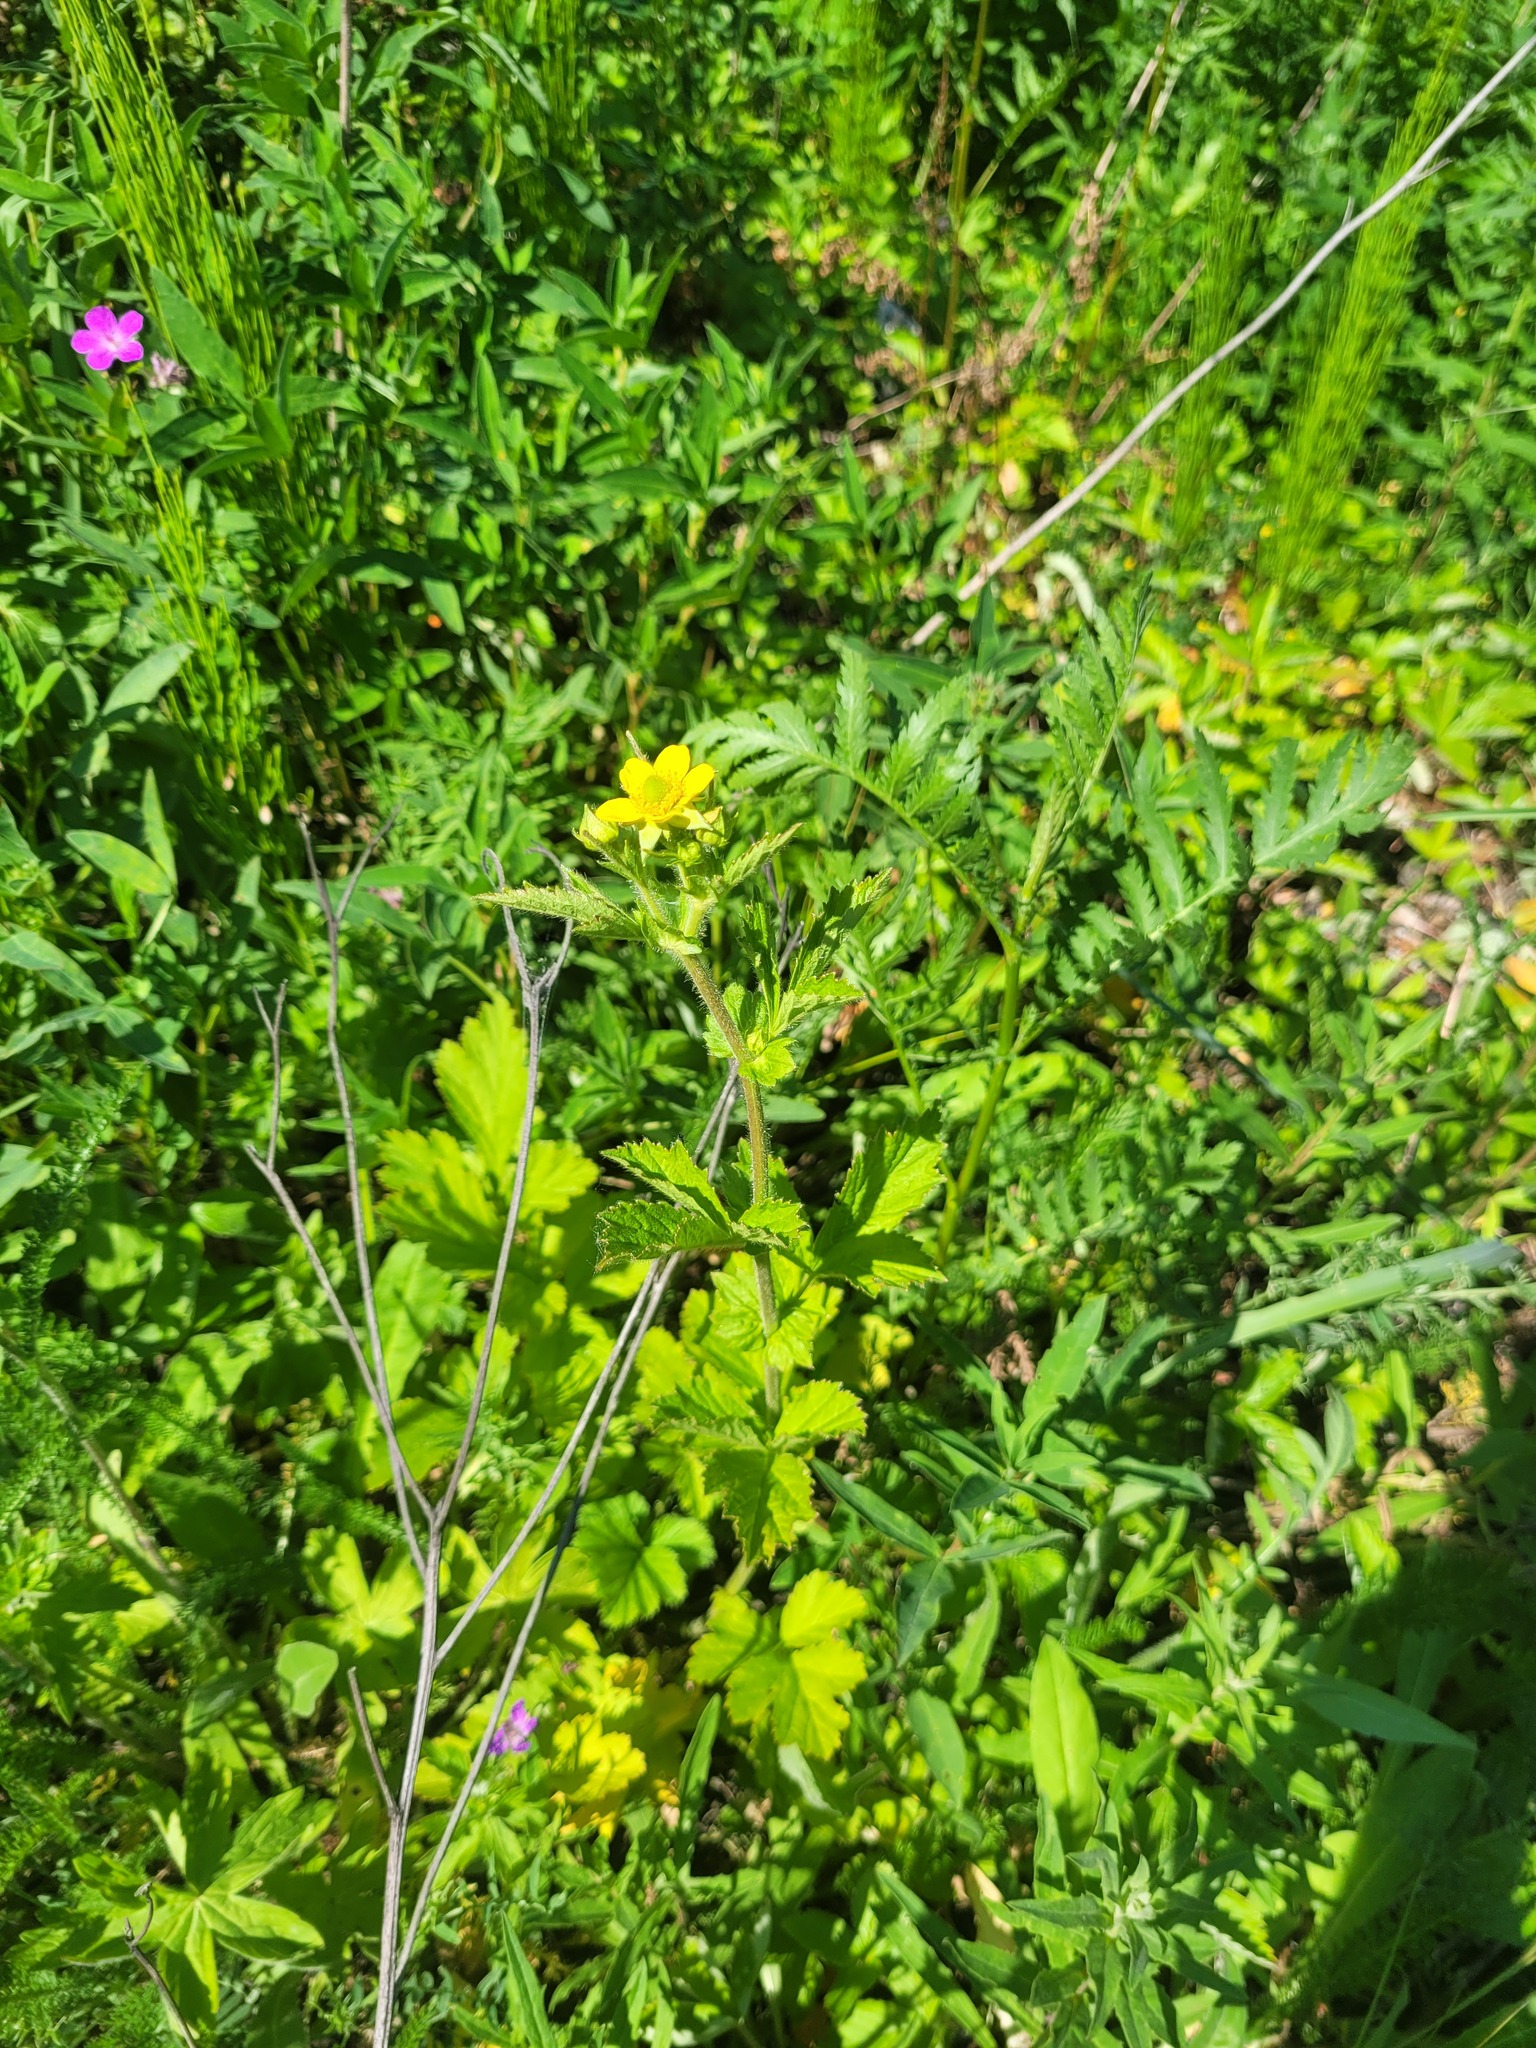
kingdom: Plantae
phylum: Tracheophyta
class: Magnoliopsida
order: Rosales
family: Rosaceae
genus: Geum
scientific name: Geum aleppicum
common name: Yellow avens
